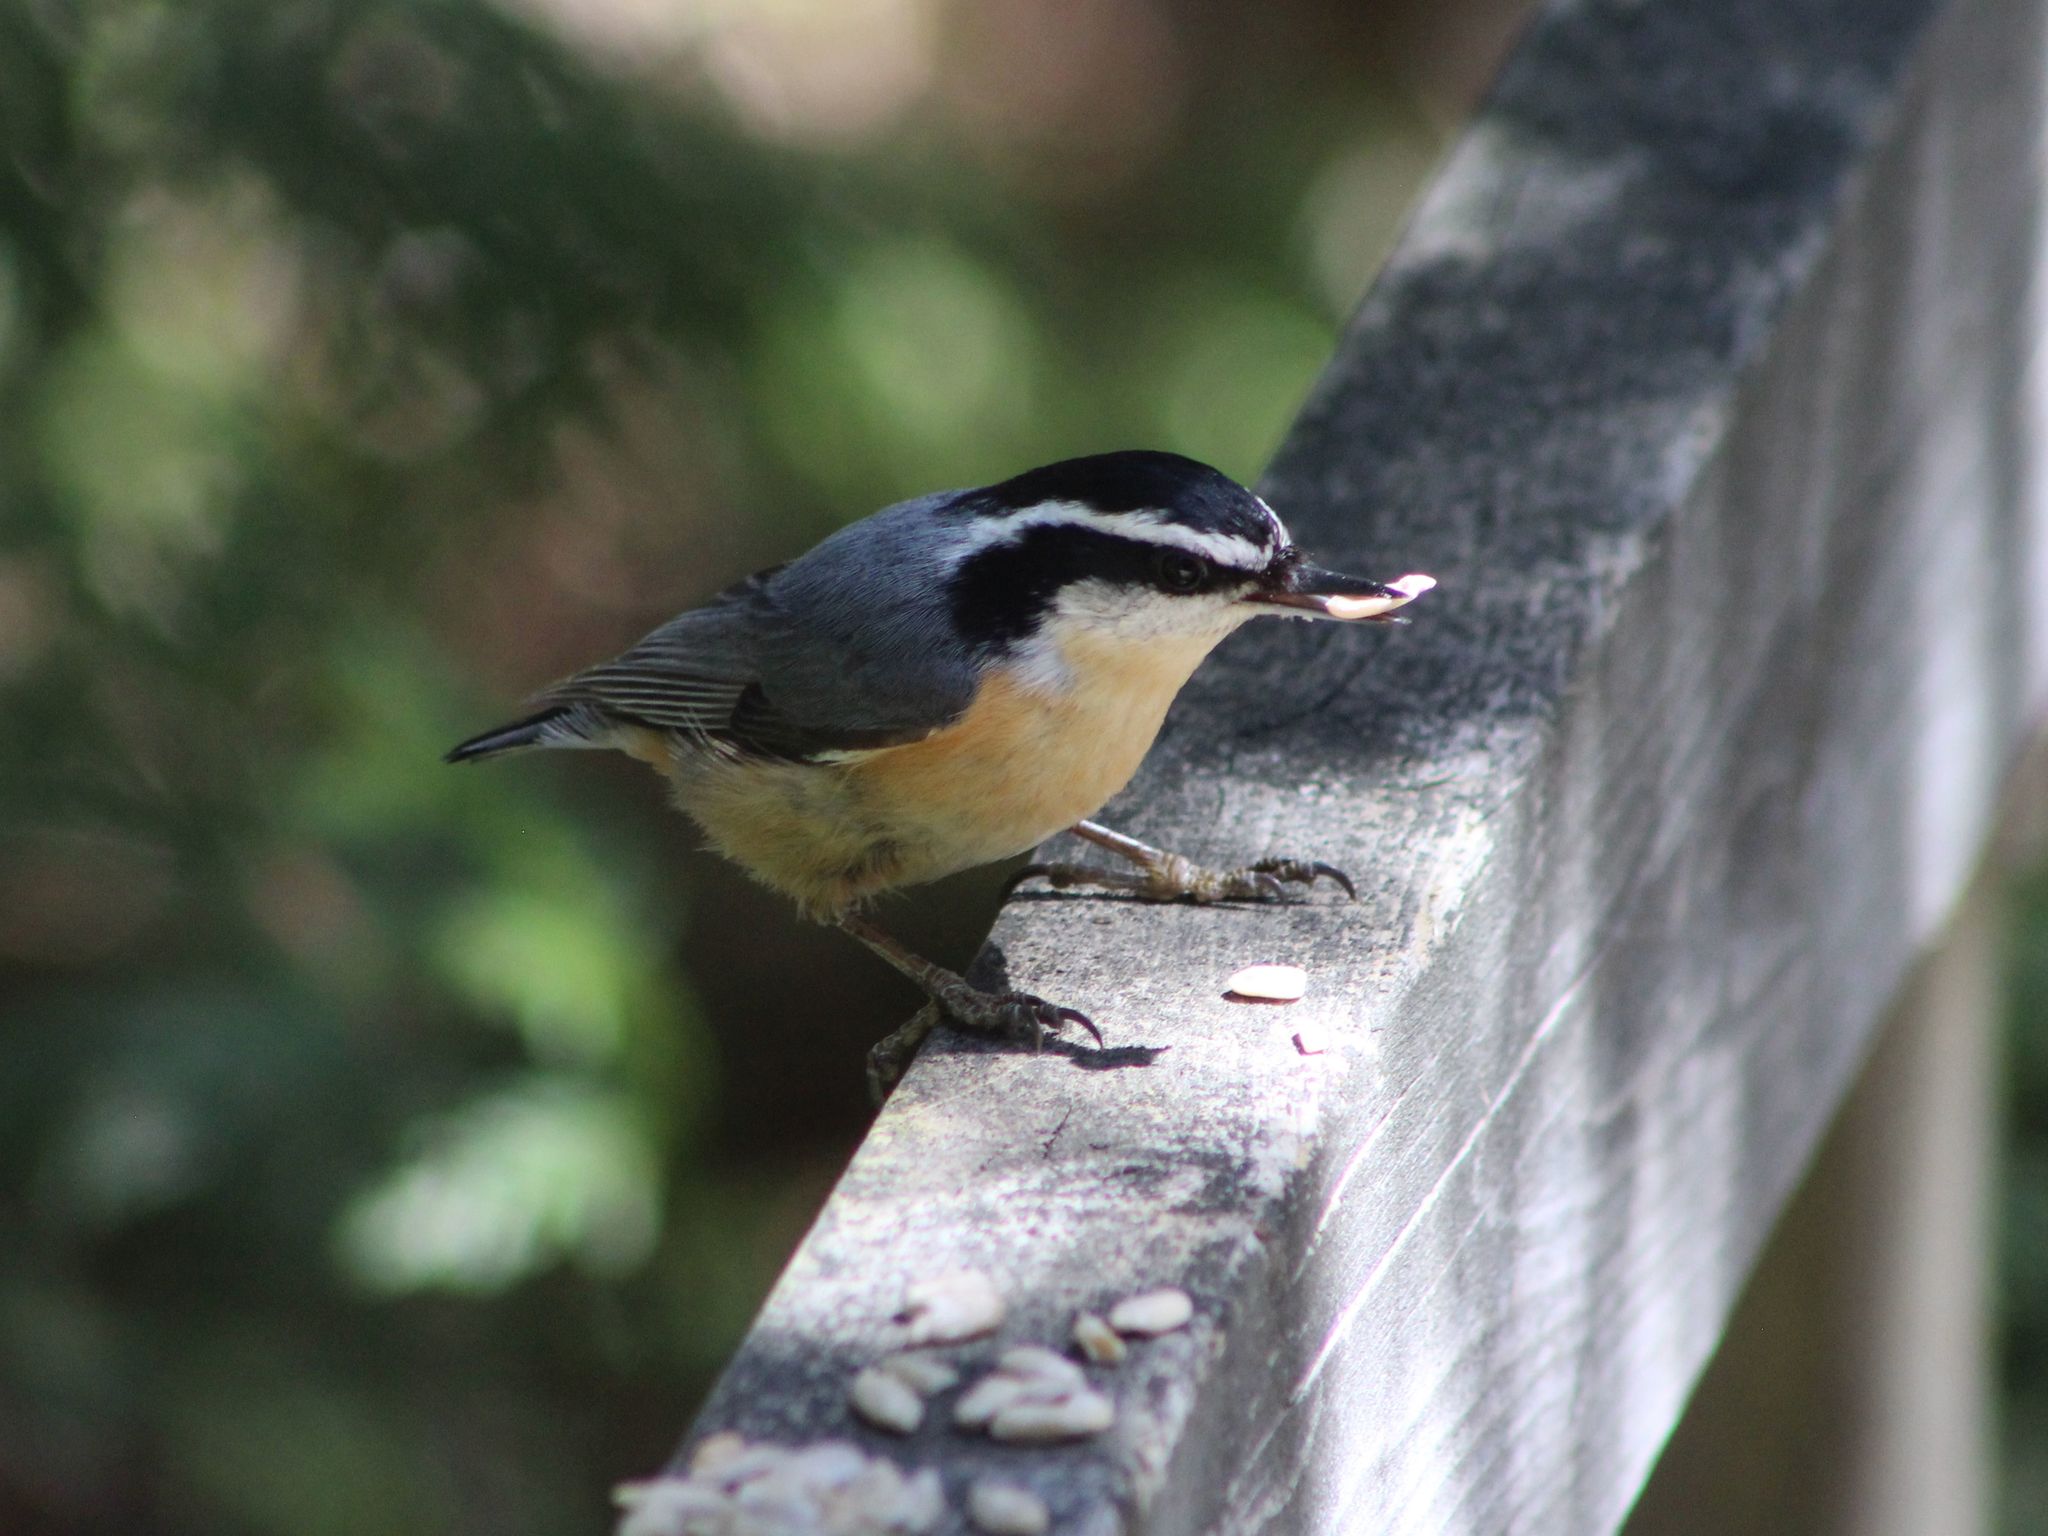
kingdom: Animalia
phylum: Chordata
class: Aves
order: Passeriformes
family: Sittidae
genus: Sitta
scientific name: Sitta canadensis
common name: Red-breasted nuthatch
